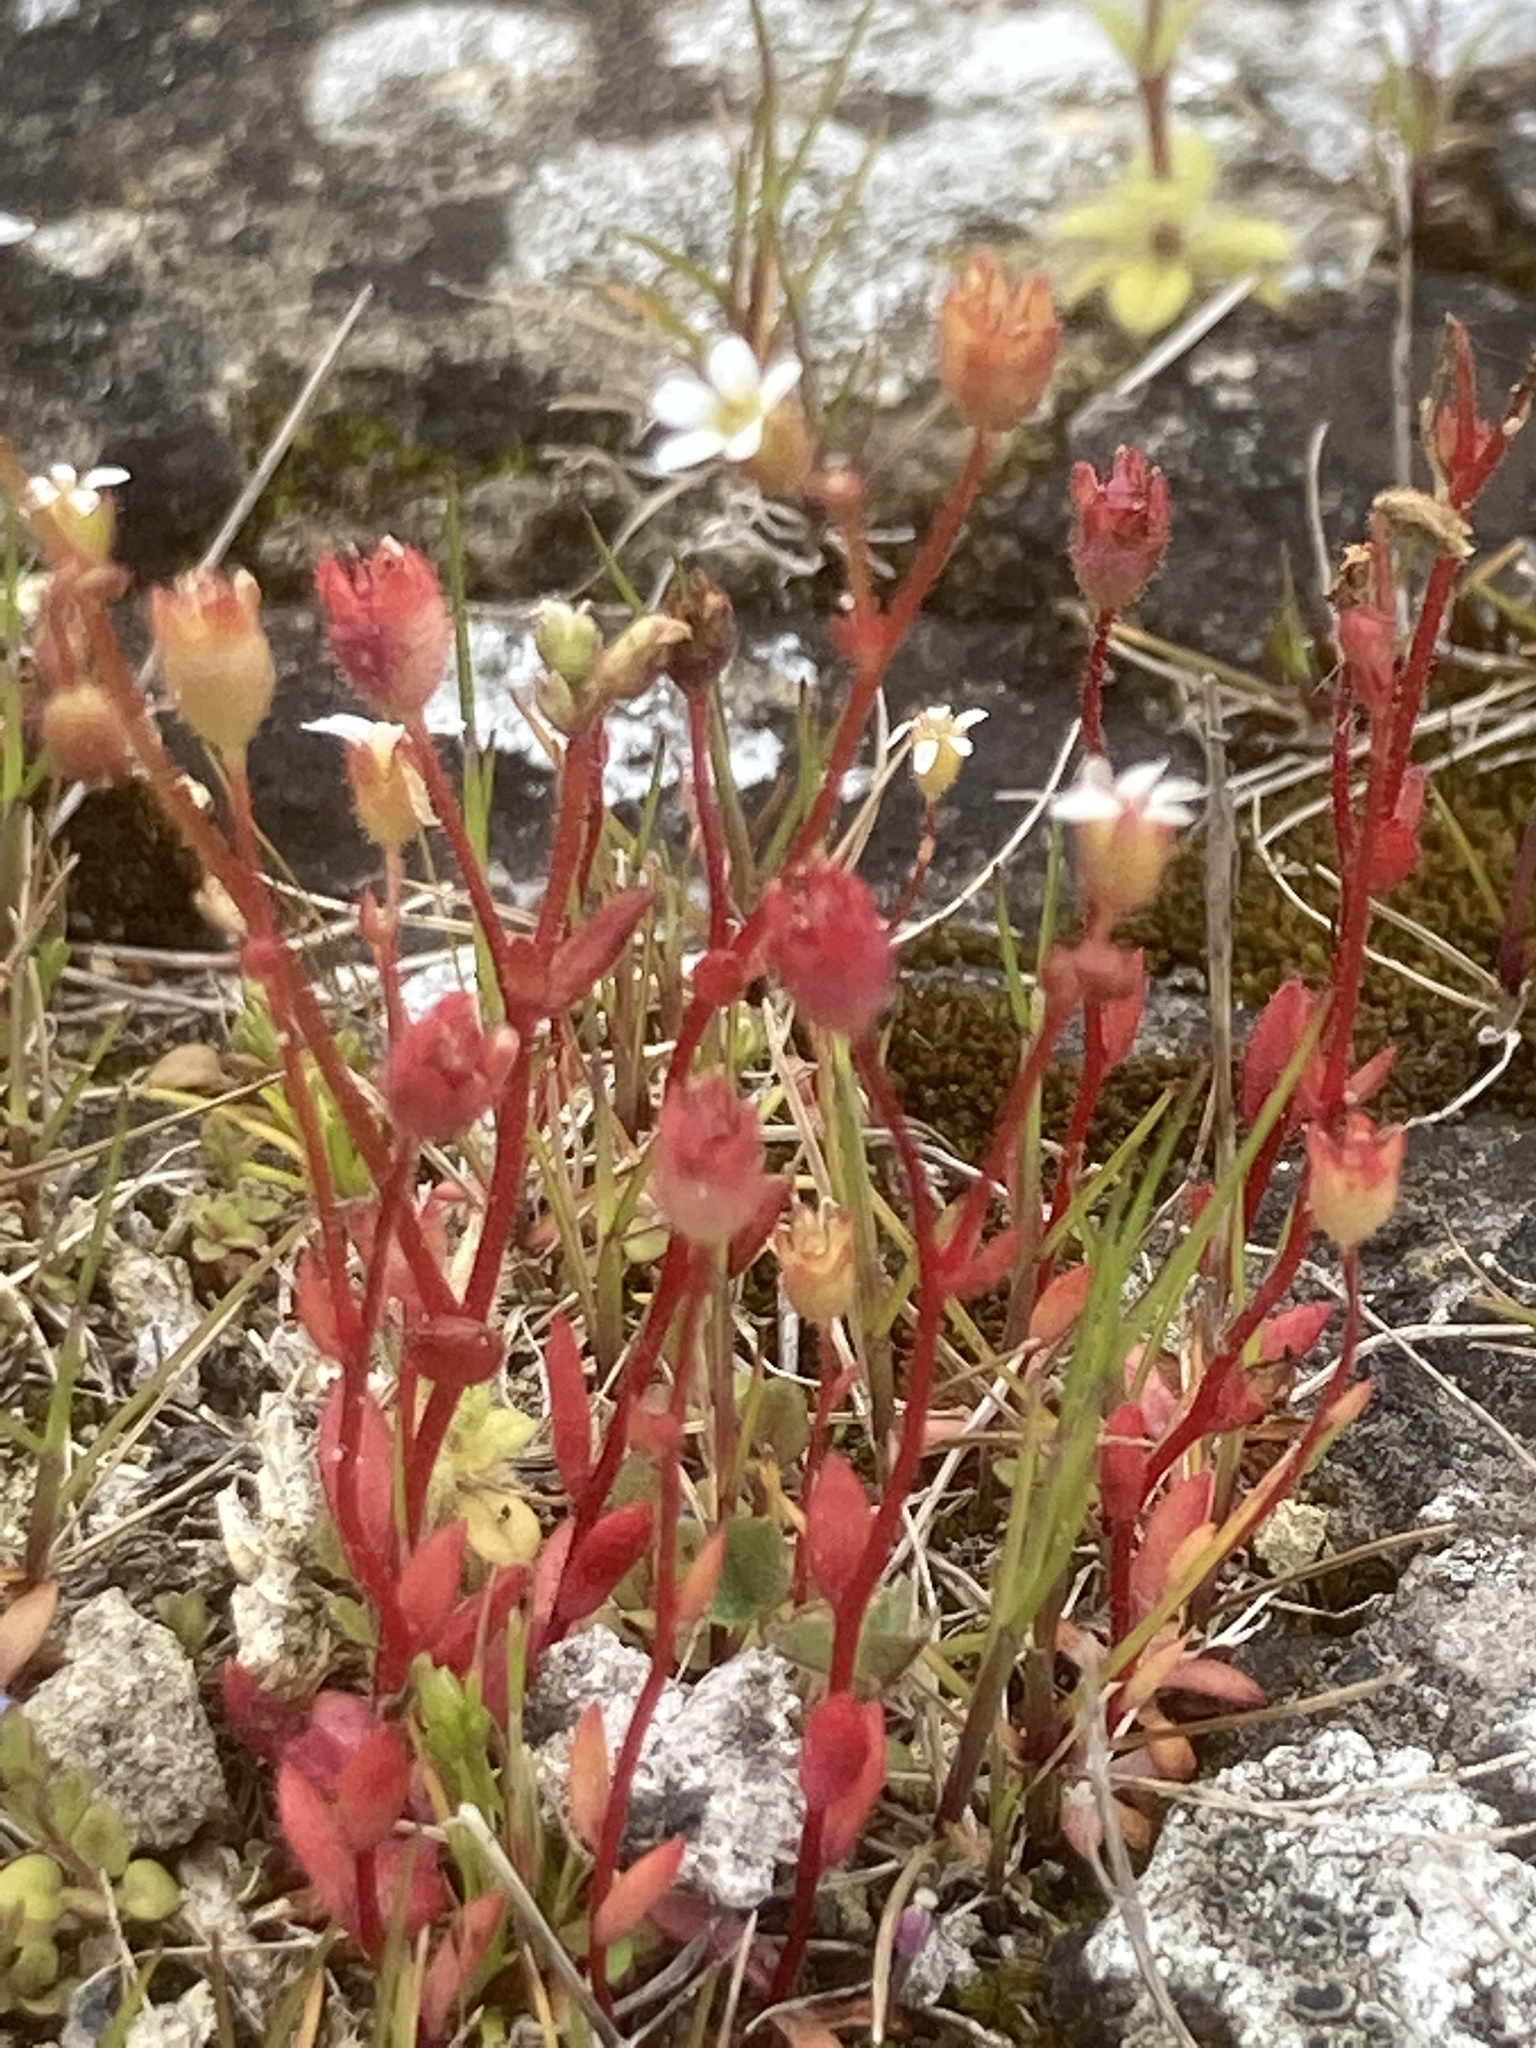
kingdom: Plantae
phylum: Tracheophyta
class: Magnoliopsida
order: Saxifragales
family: Saxifragaceae
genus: Saxifraga
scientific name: Saxifraga tridactylites
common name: Rue-leaved saxifrage
